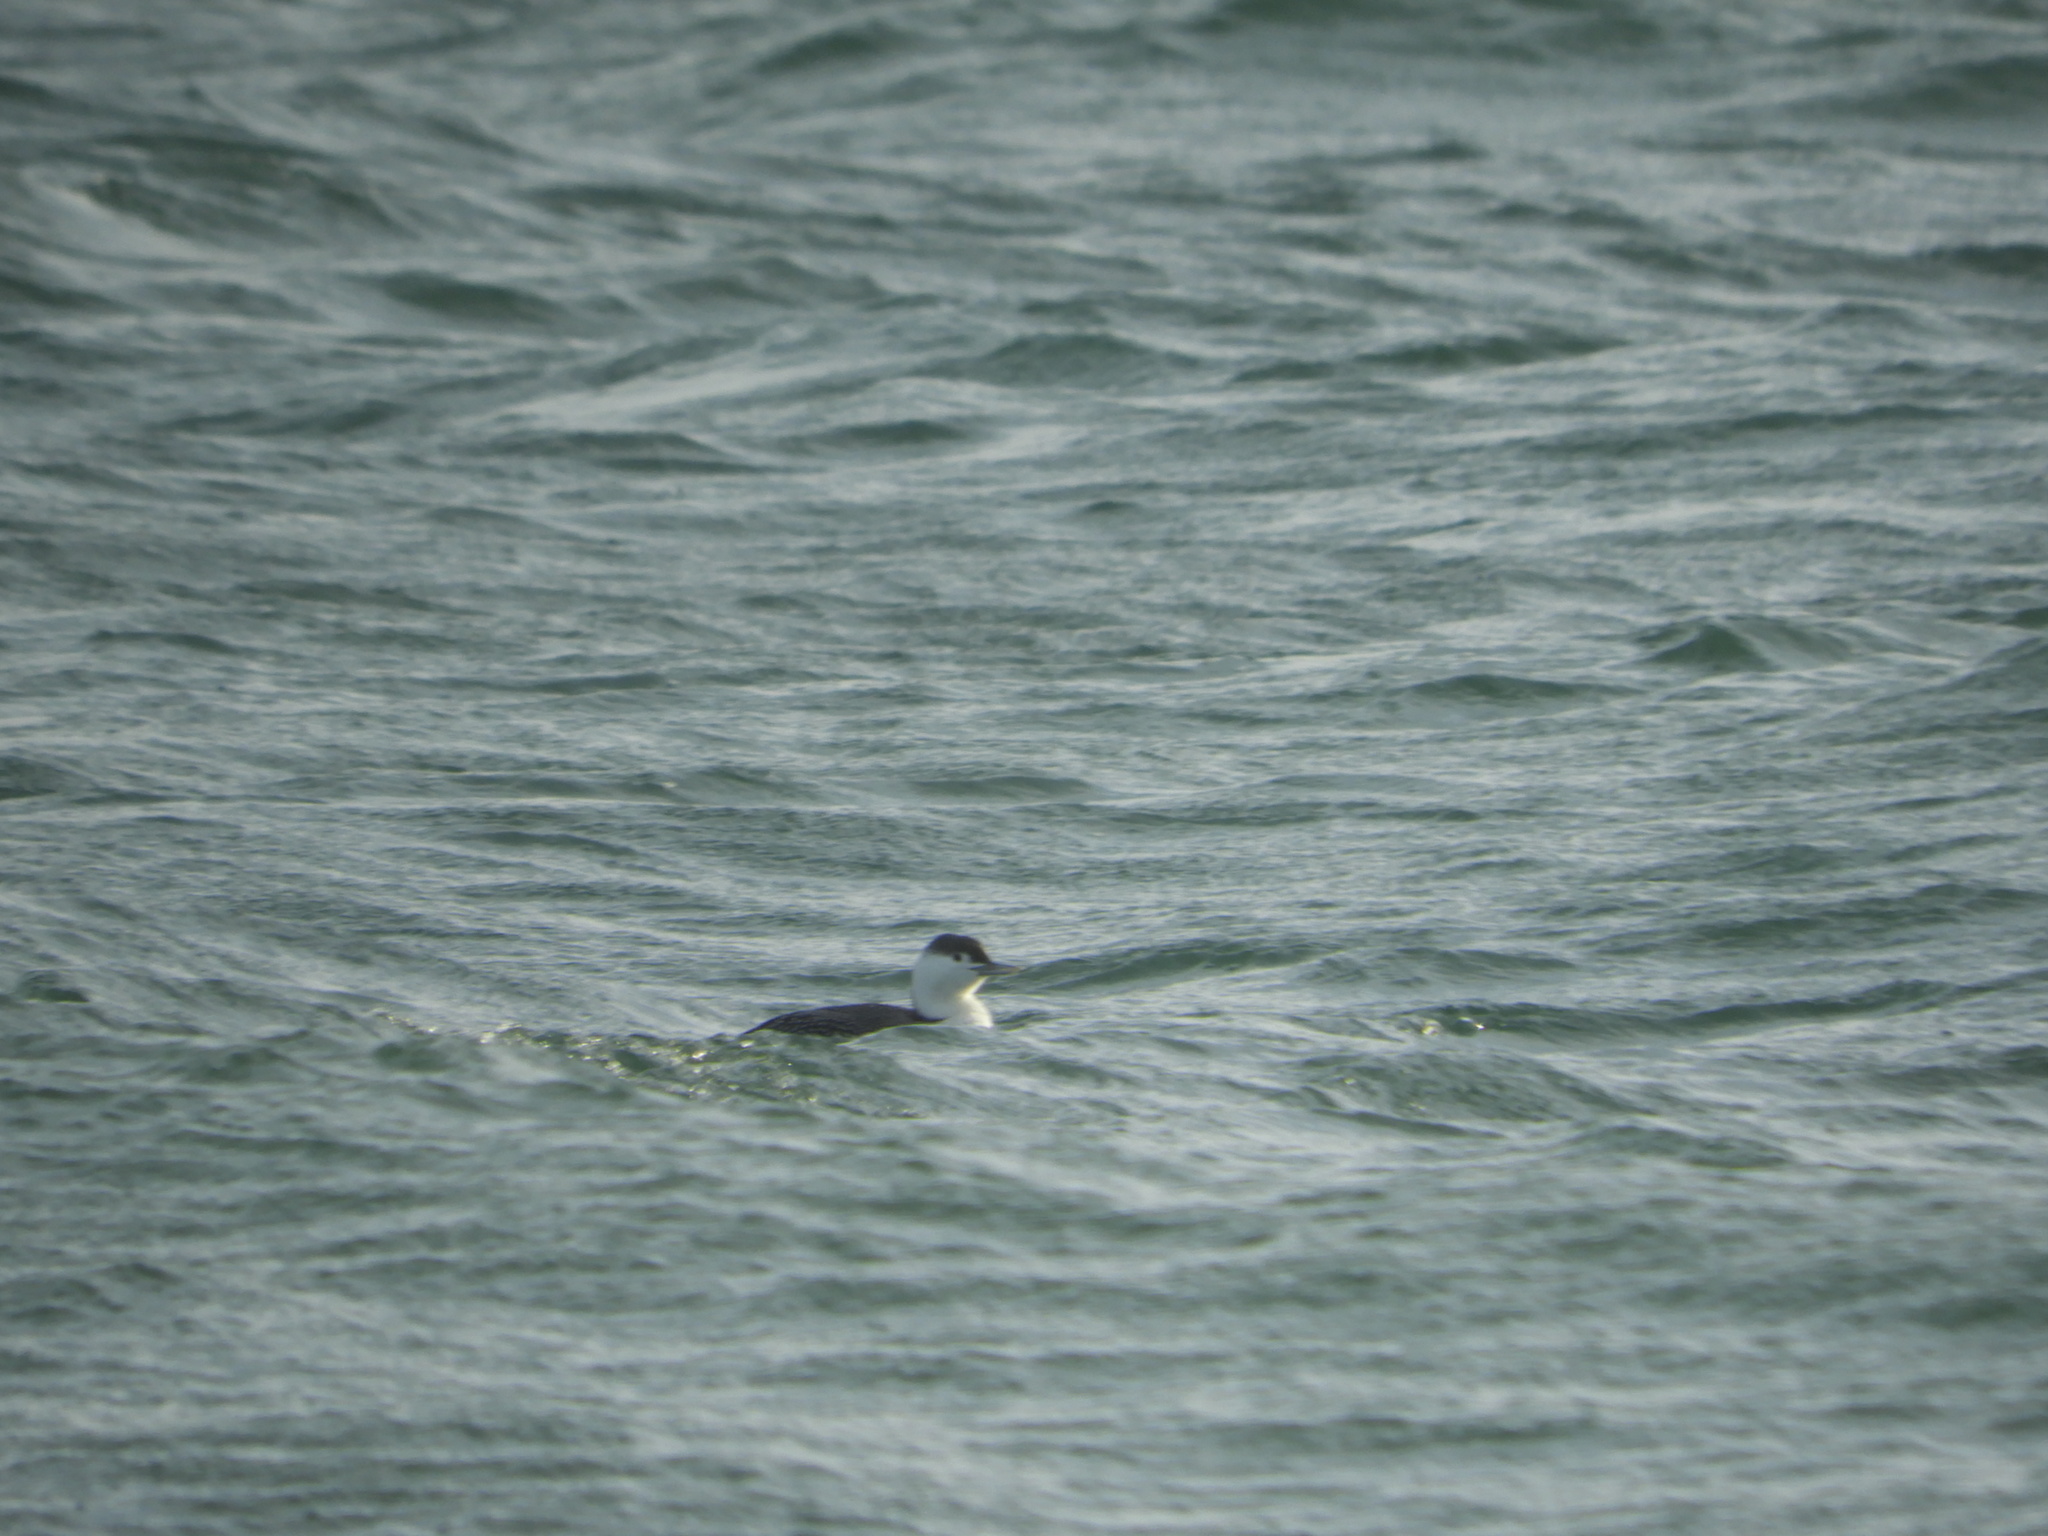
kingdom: Animalia
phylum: Chordata
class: Aves
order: Gaviiformes
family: Gaviidae
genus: Gavia
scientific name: Gavia stellata
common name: Red-throated loon
